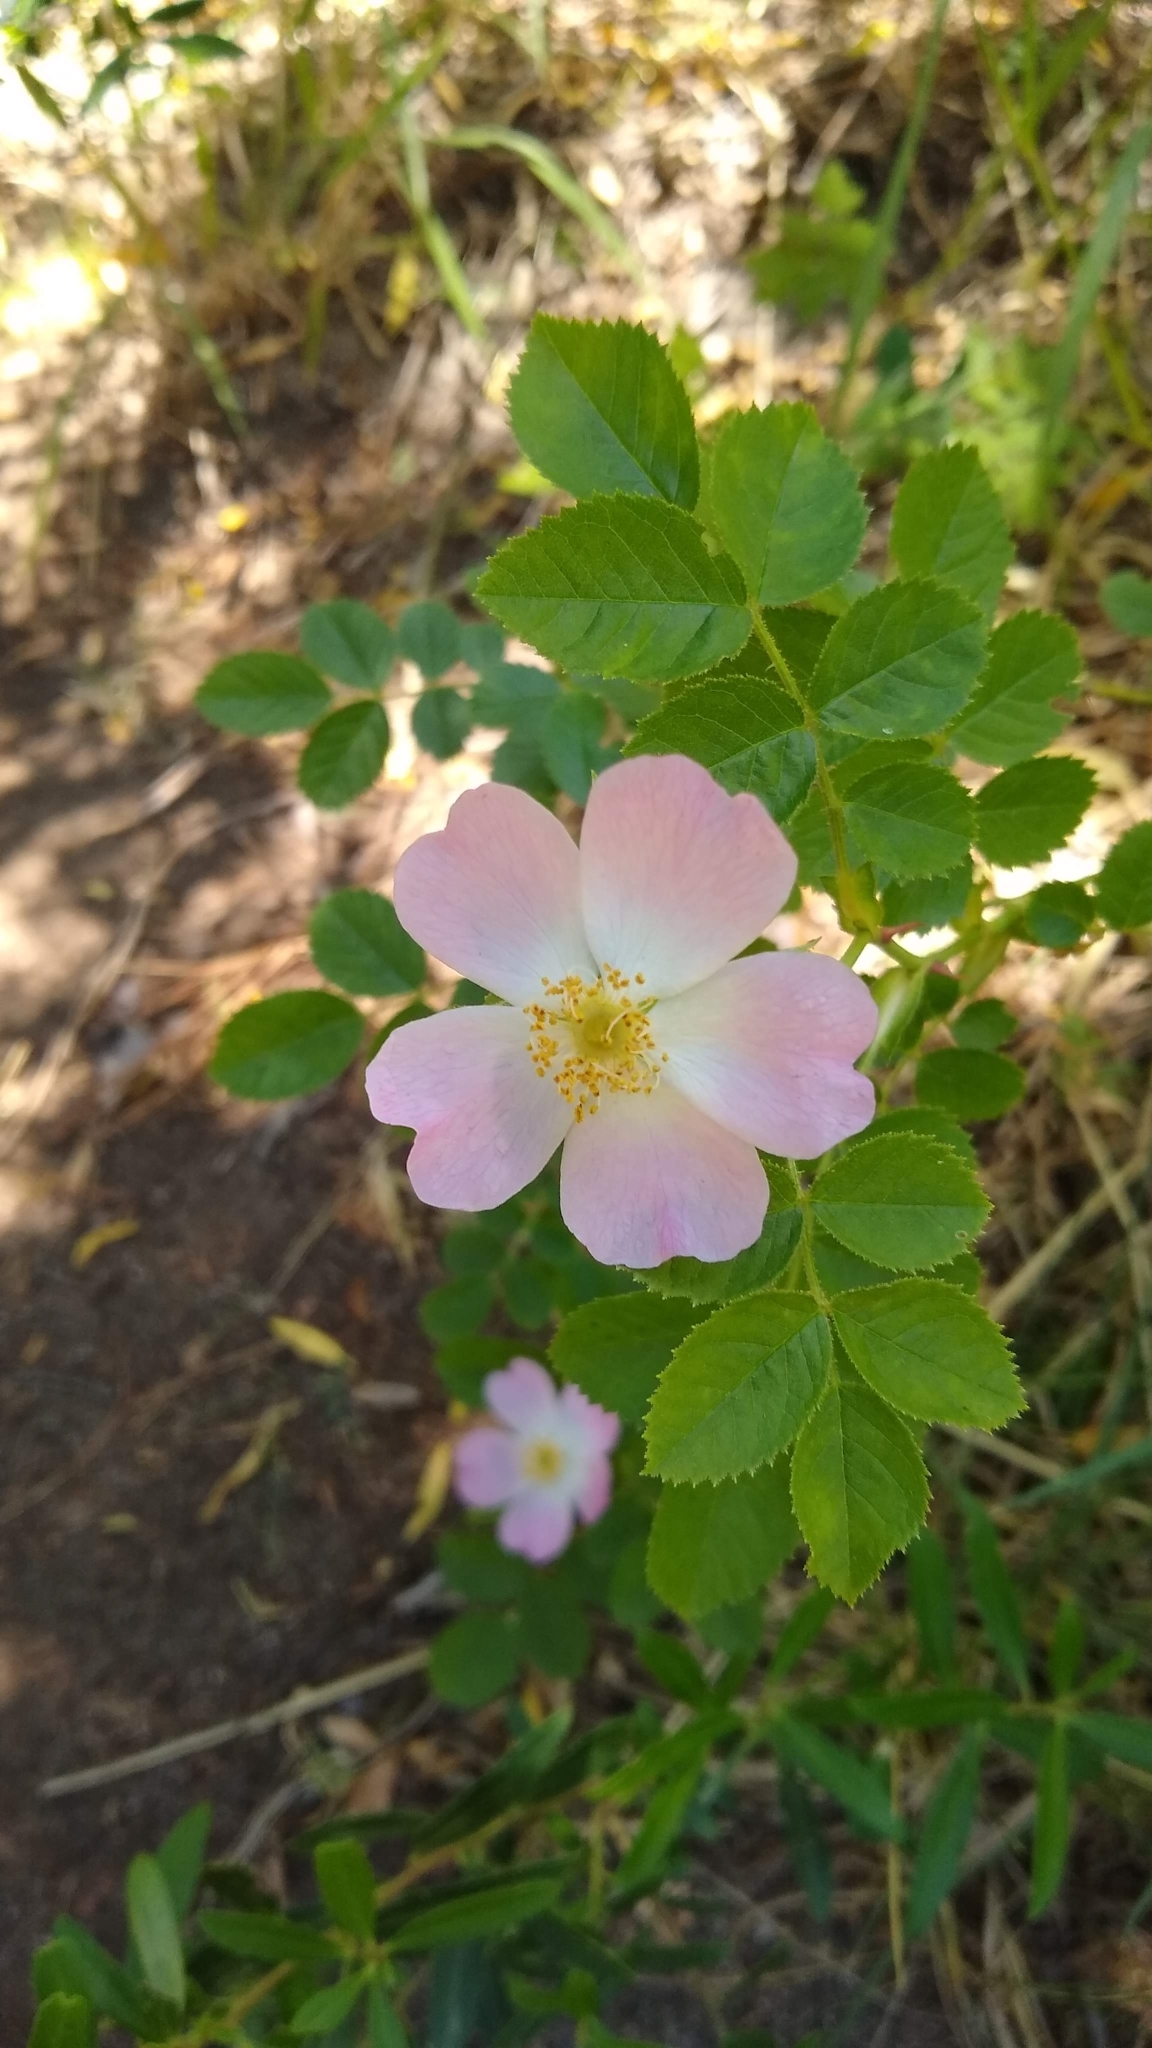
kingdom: Plantae
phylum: Tracheophyta
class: Magnoliopsida
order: Rosales
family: Rosaceae
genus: Rosa
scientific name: Rosa rubiginosa
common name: Sweet-briar
